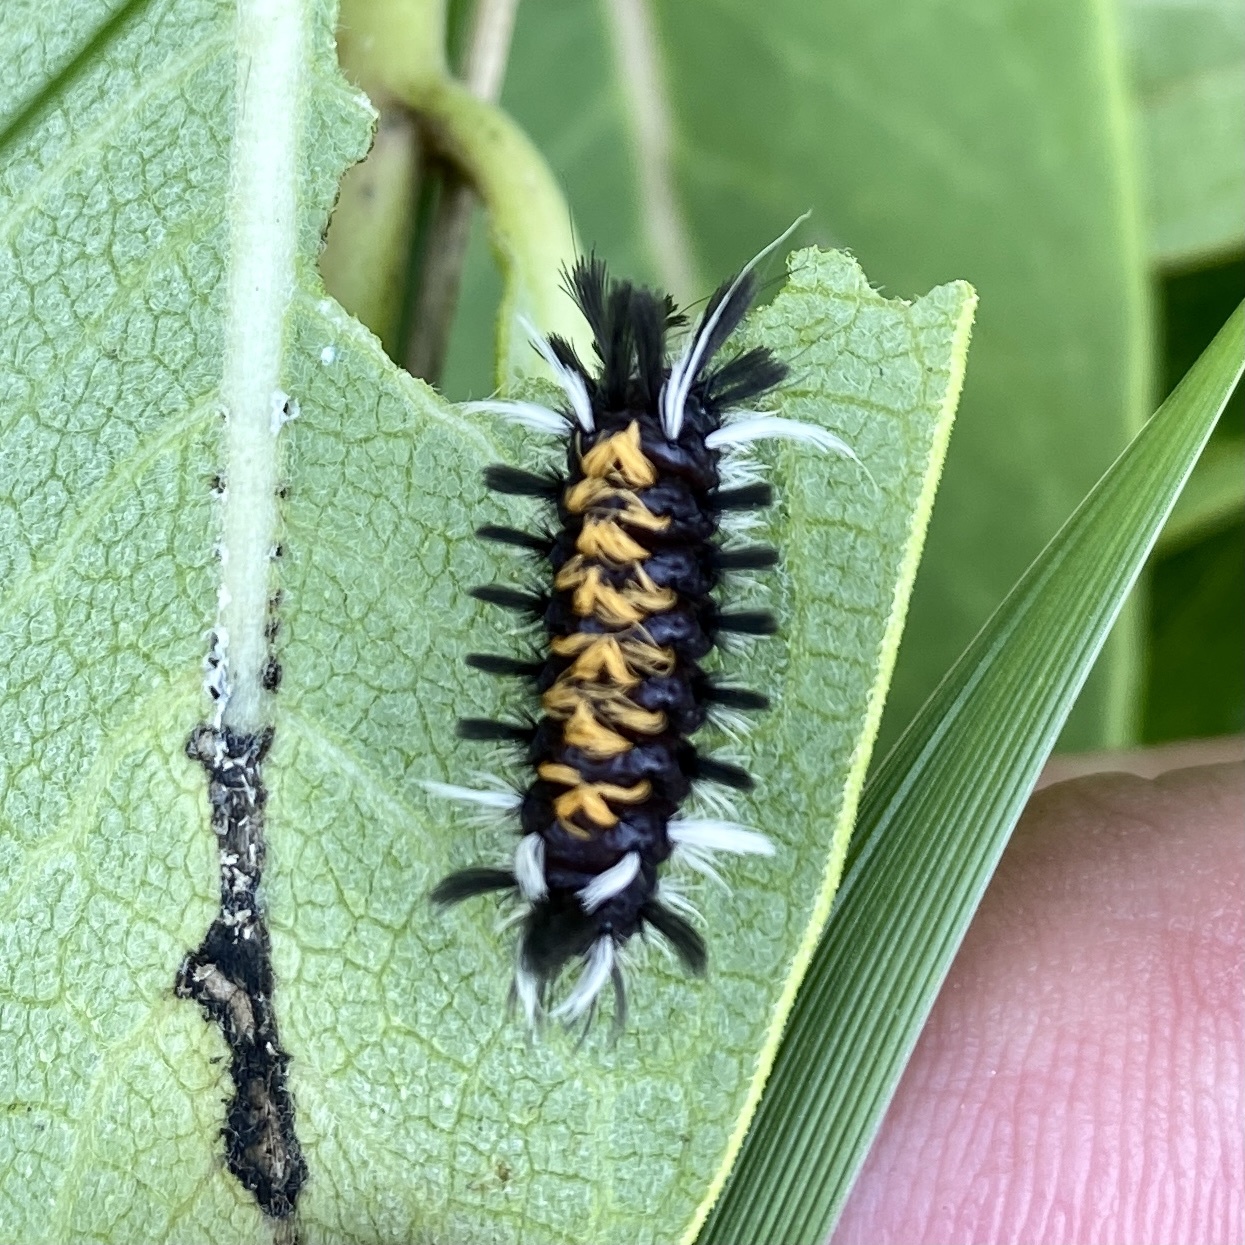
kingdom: Animalia
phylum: Arthropoda
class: Insecta
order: Lepidoptera
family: Erebidae
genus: Euchaetes
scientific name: Euchaetes egle
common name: Milkweed tussock moth
